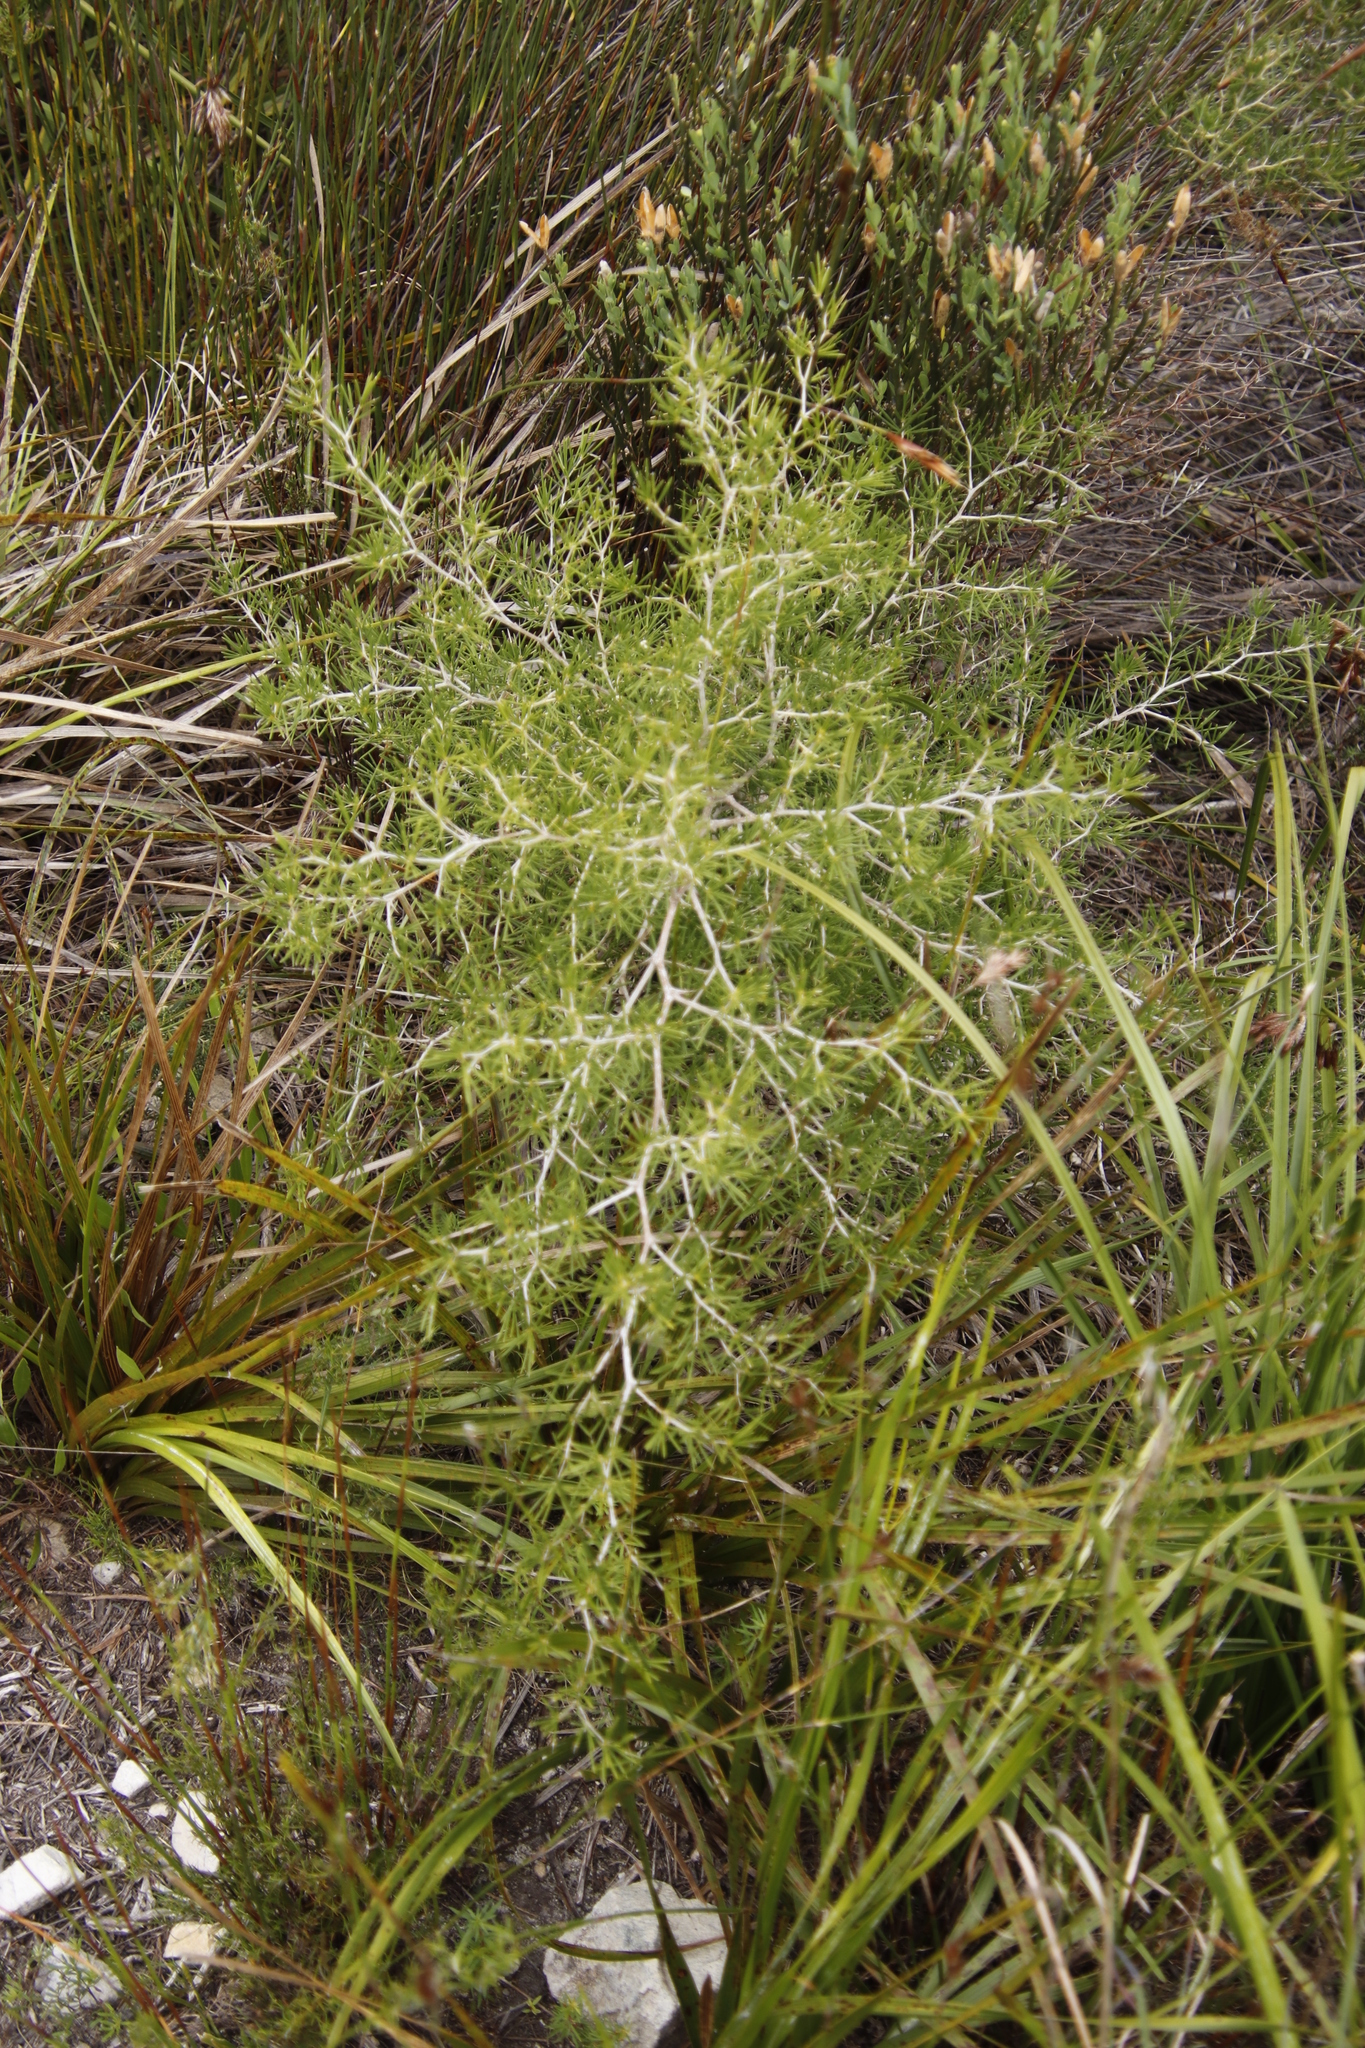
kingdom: Plantae
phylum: Tracheophyta
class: Liliopsida
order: Asparagales
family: Asparagaceae
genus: Asparagus
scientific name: Asparagus lignosus
